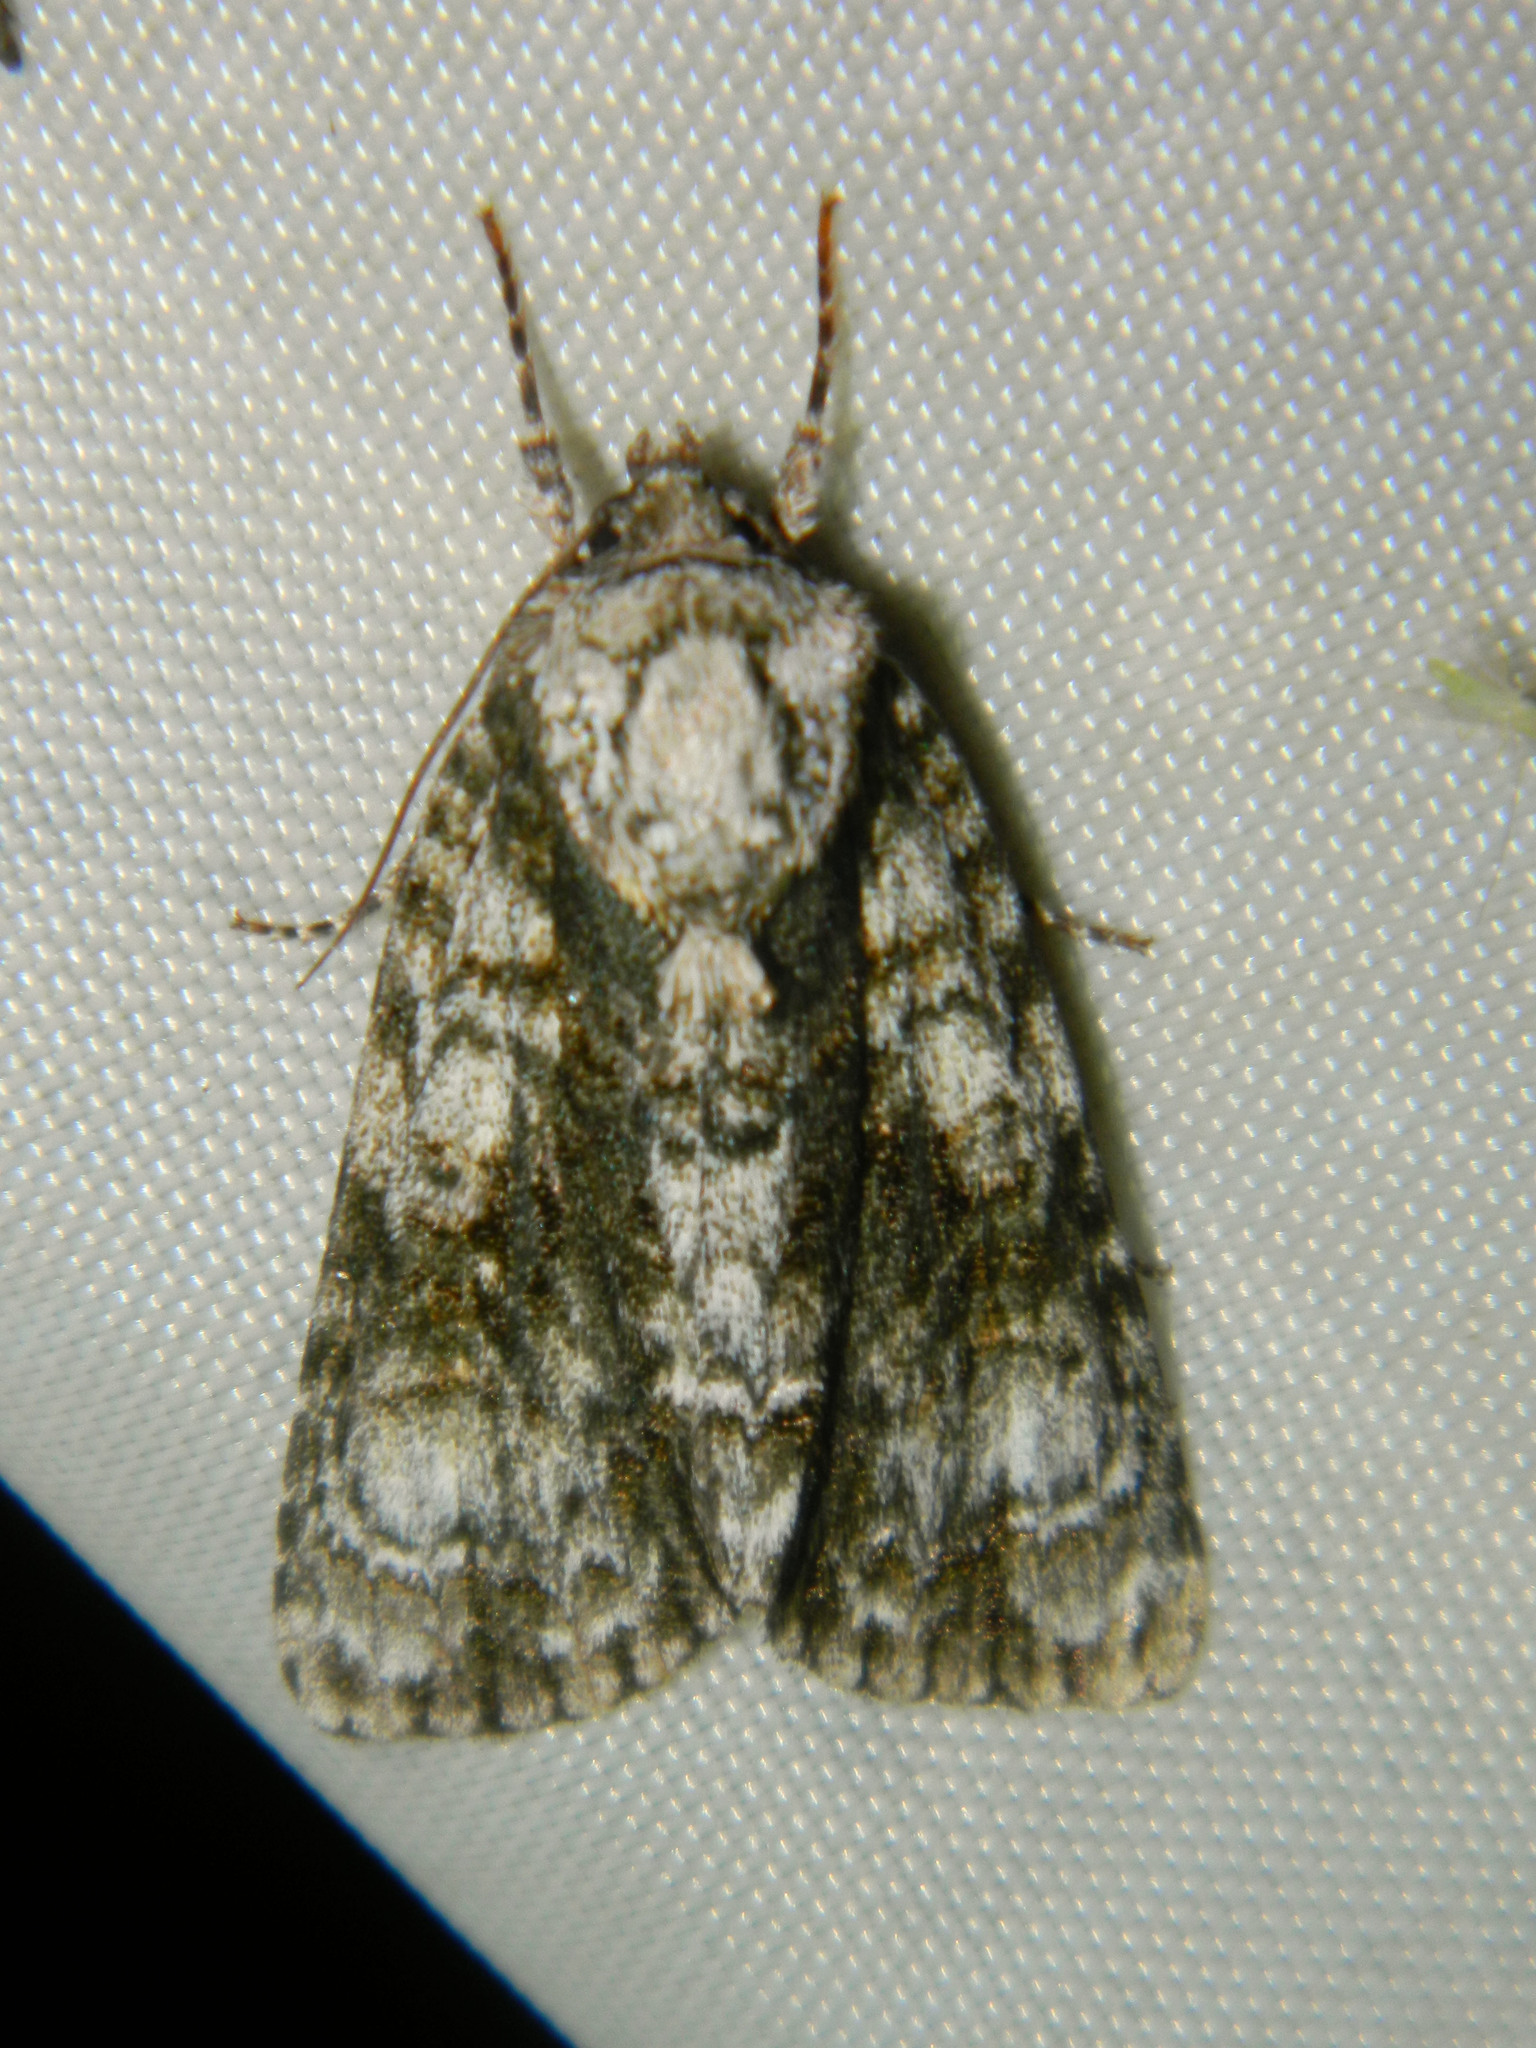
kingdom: Animalia
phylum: Arthropoda
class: Insecta
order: Lepidoptera
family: Noctuidae
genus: Acronicta
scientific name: Acronicta superans
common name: Splendid dagger
